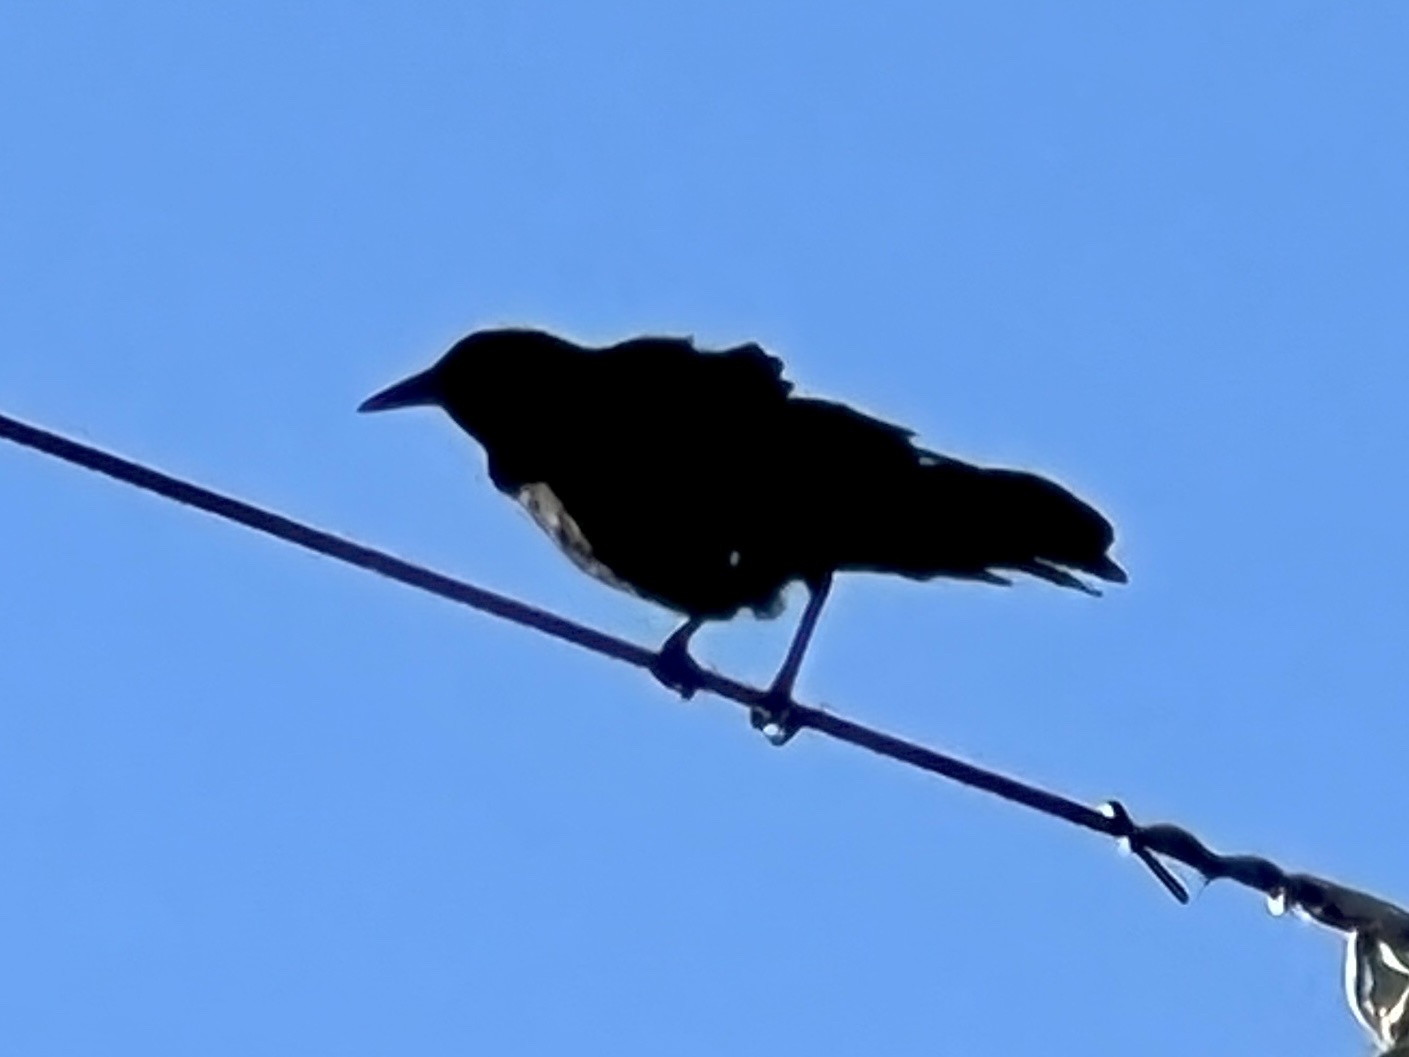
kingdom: Animalia
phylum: Chordata
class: Aves
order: Passeriformes
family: Icteridae
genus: Quiscalus
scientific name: Quiscalus mexicanus
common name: Great-tailed grackle
